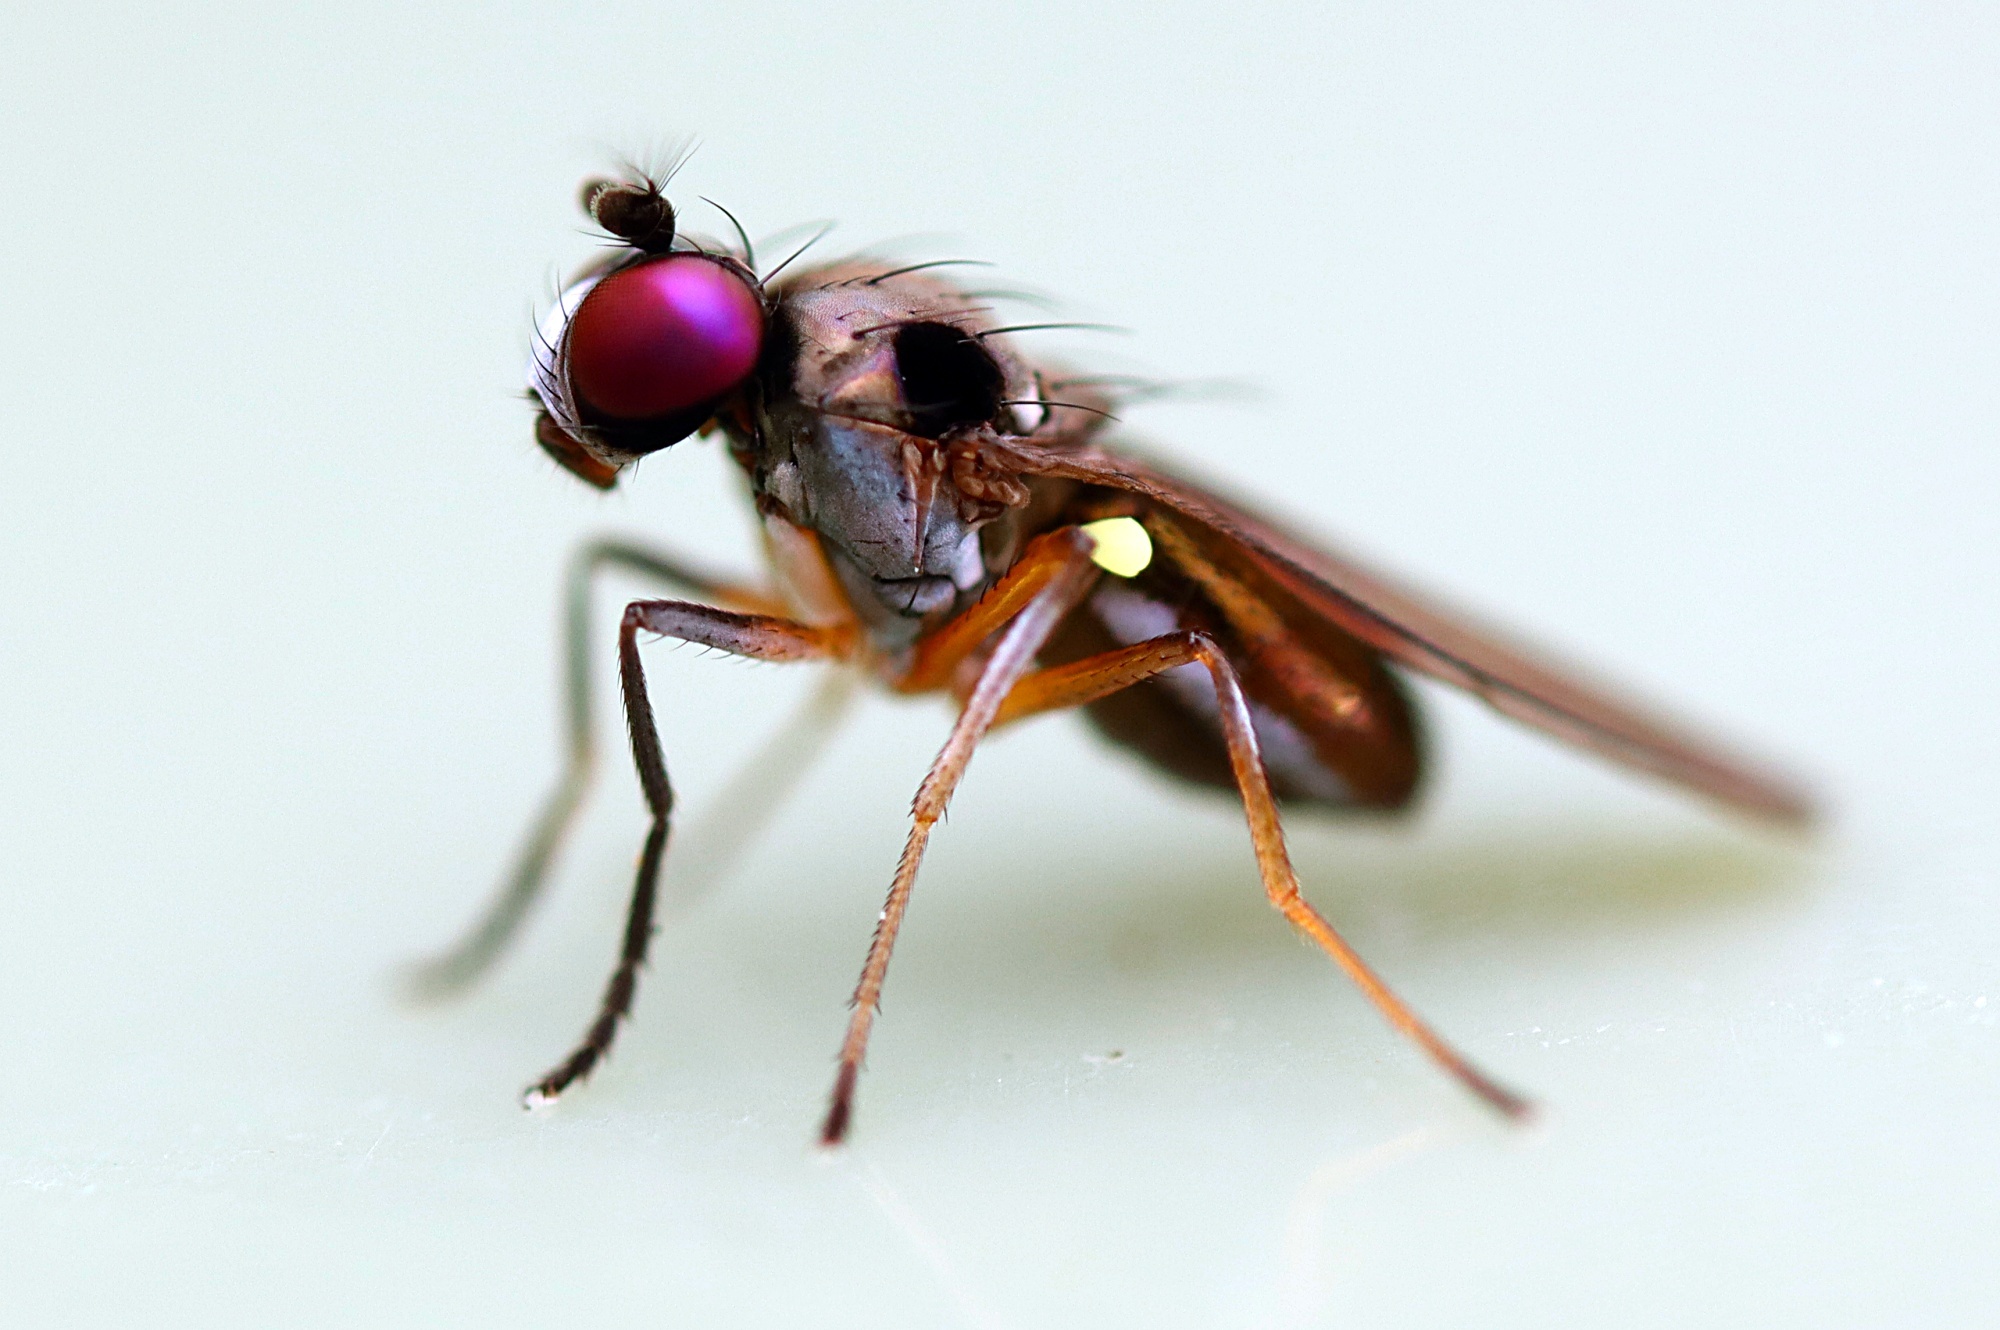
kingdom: Animalia
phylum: Arthropoda
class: Insecta
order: Diptera
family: Ephydridae
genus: Hydrellia
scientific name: Hydrellia tritici
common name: Shore fly
